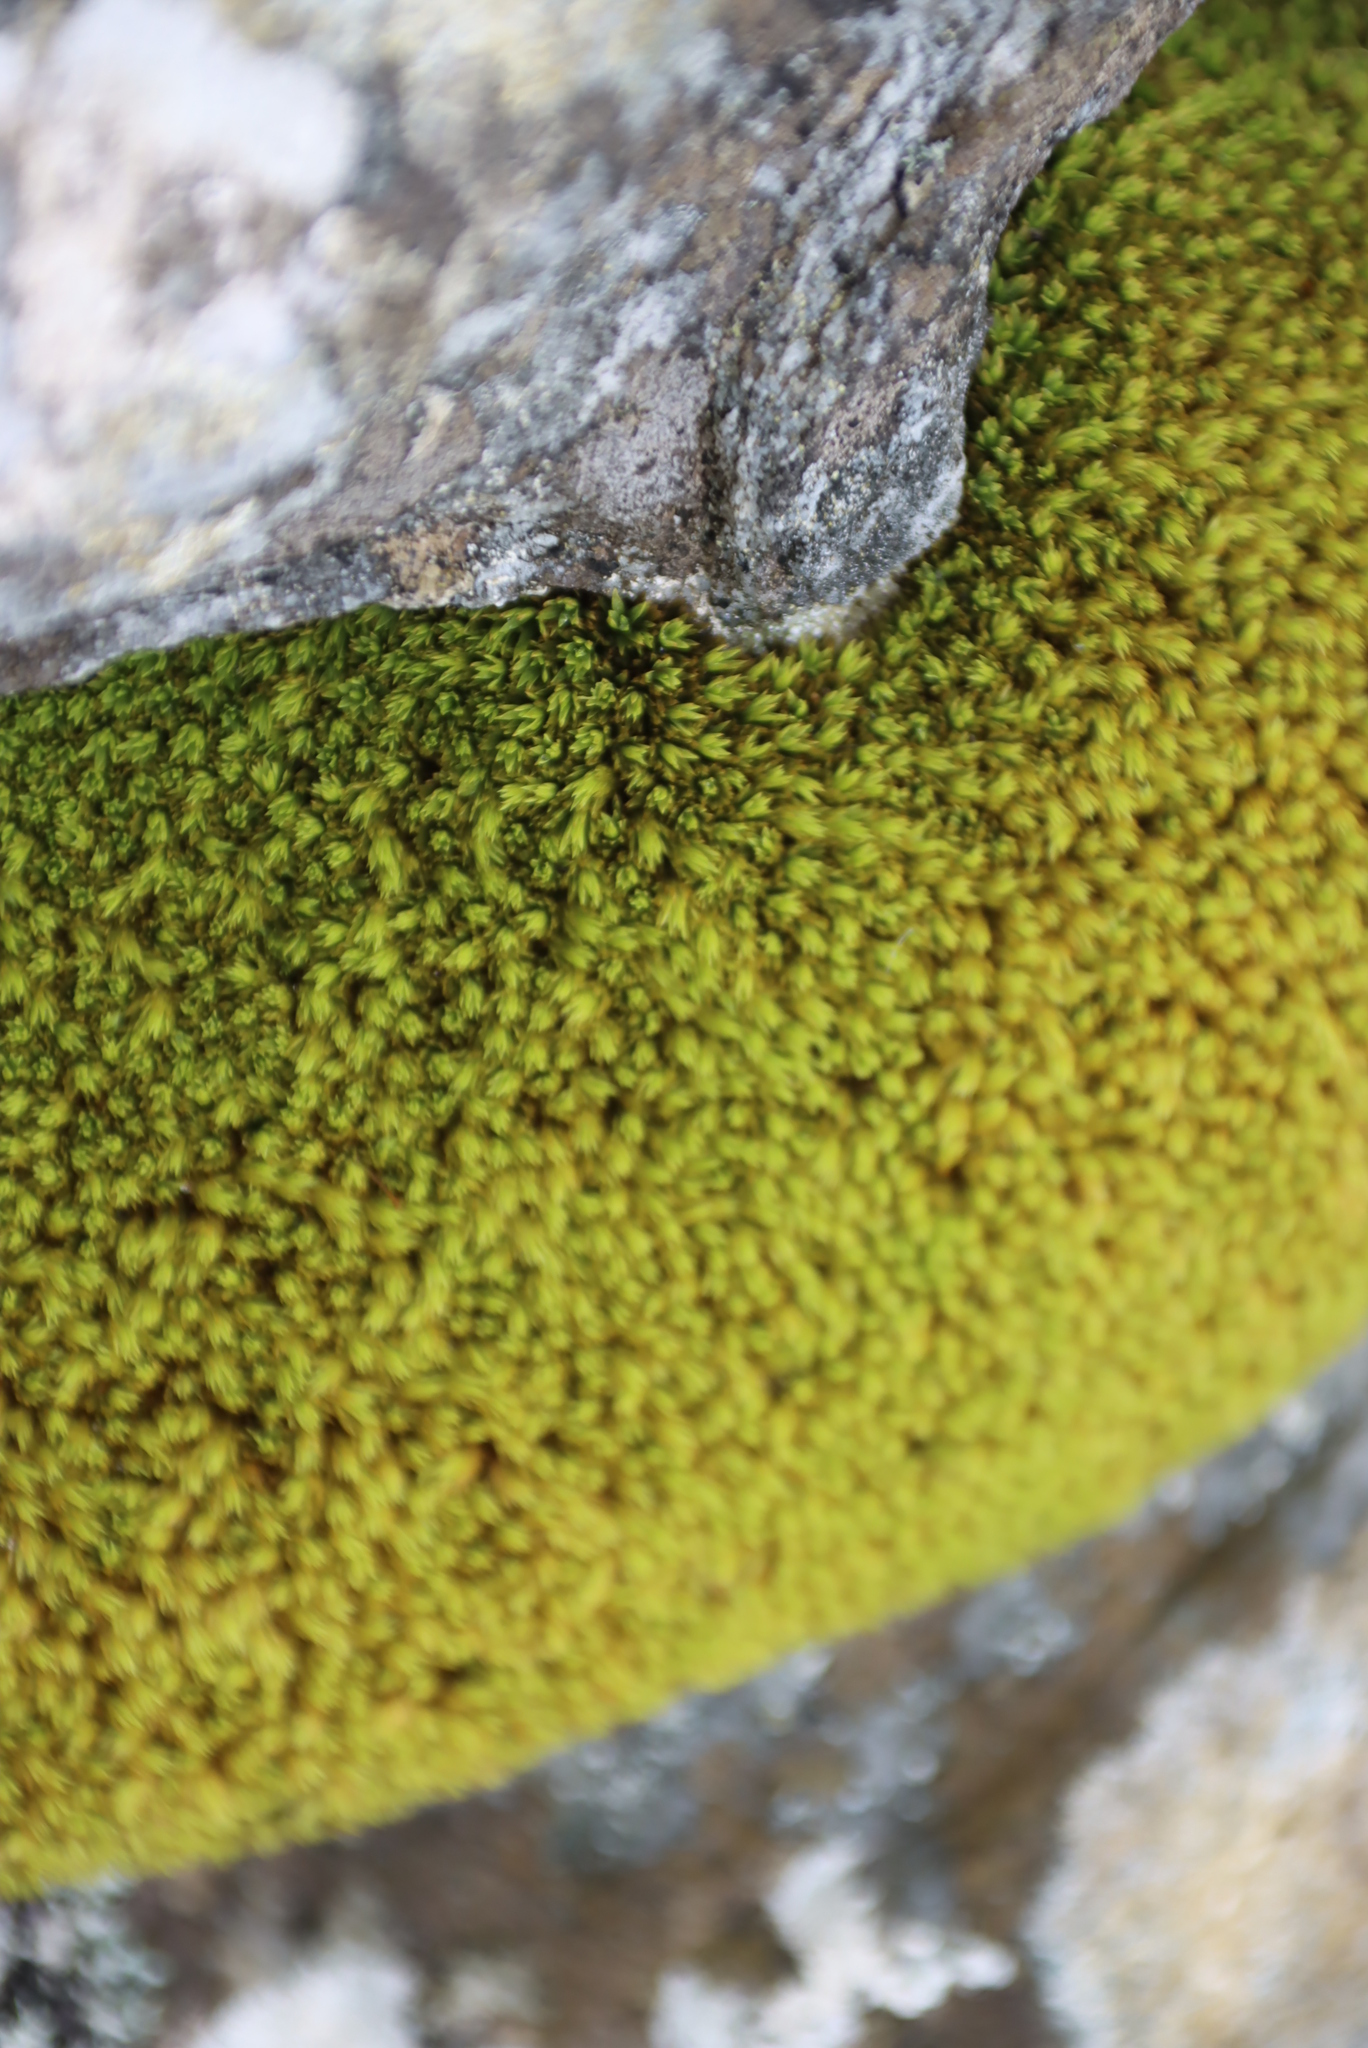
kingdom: Plantae
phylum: Bryophyta
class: Bryopsida
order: Dicranales
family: Hypodontiaceae
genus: Hypodontium
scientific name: Hypodontium pomiforme
